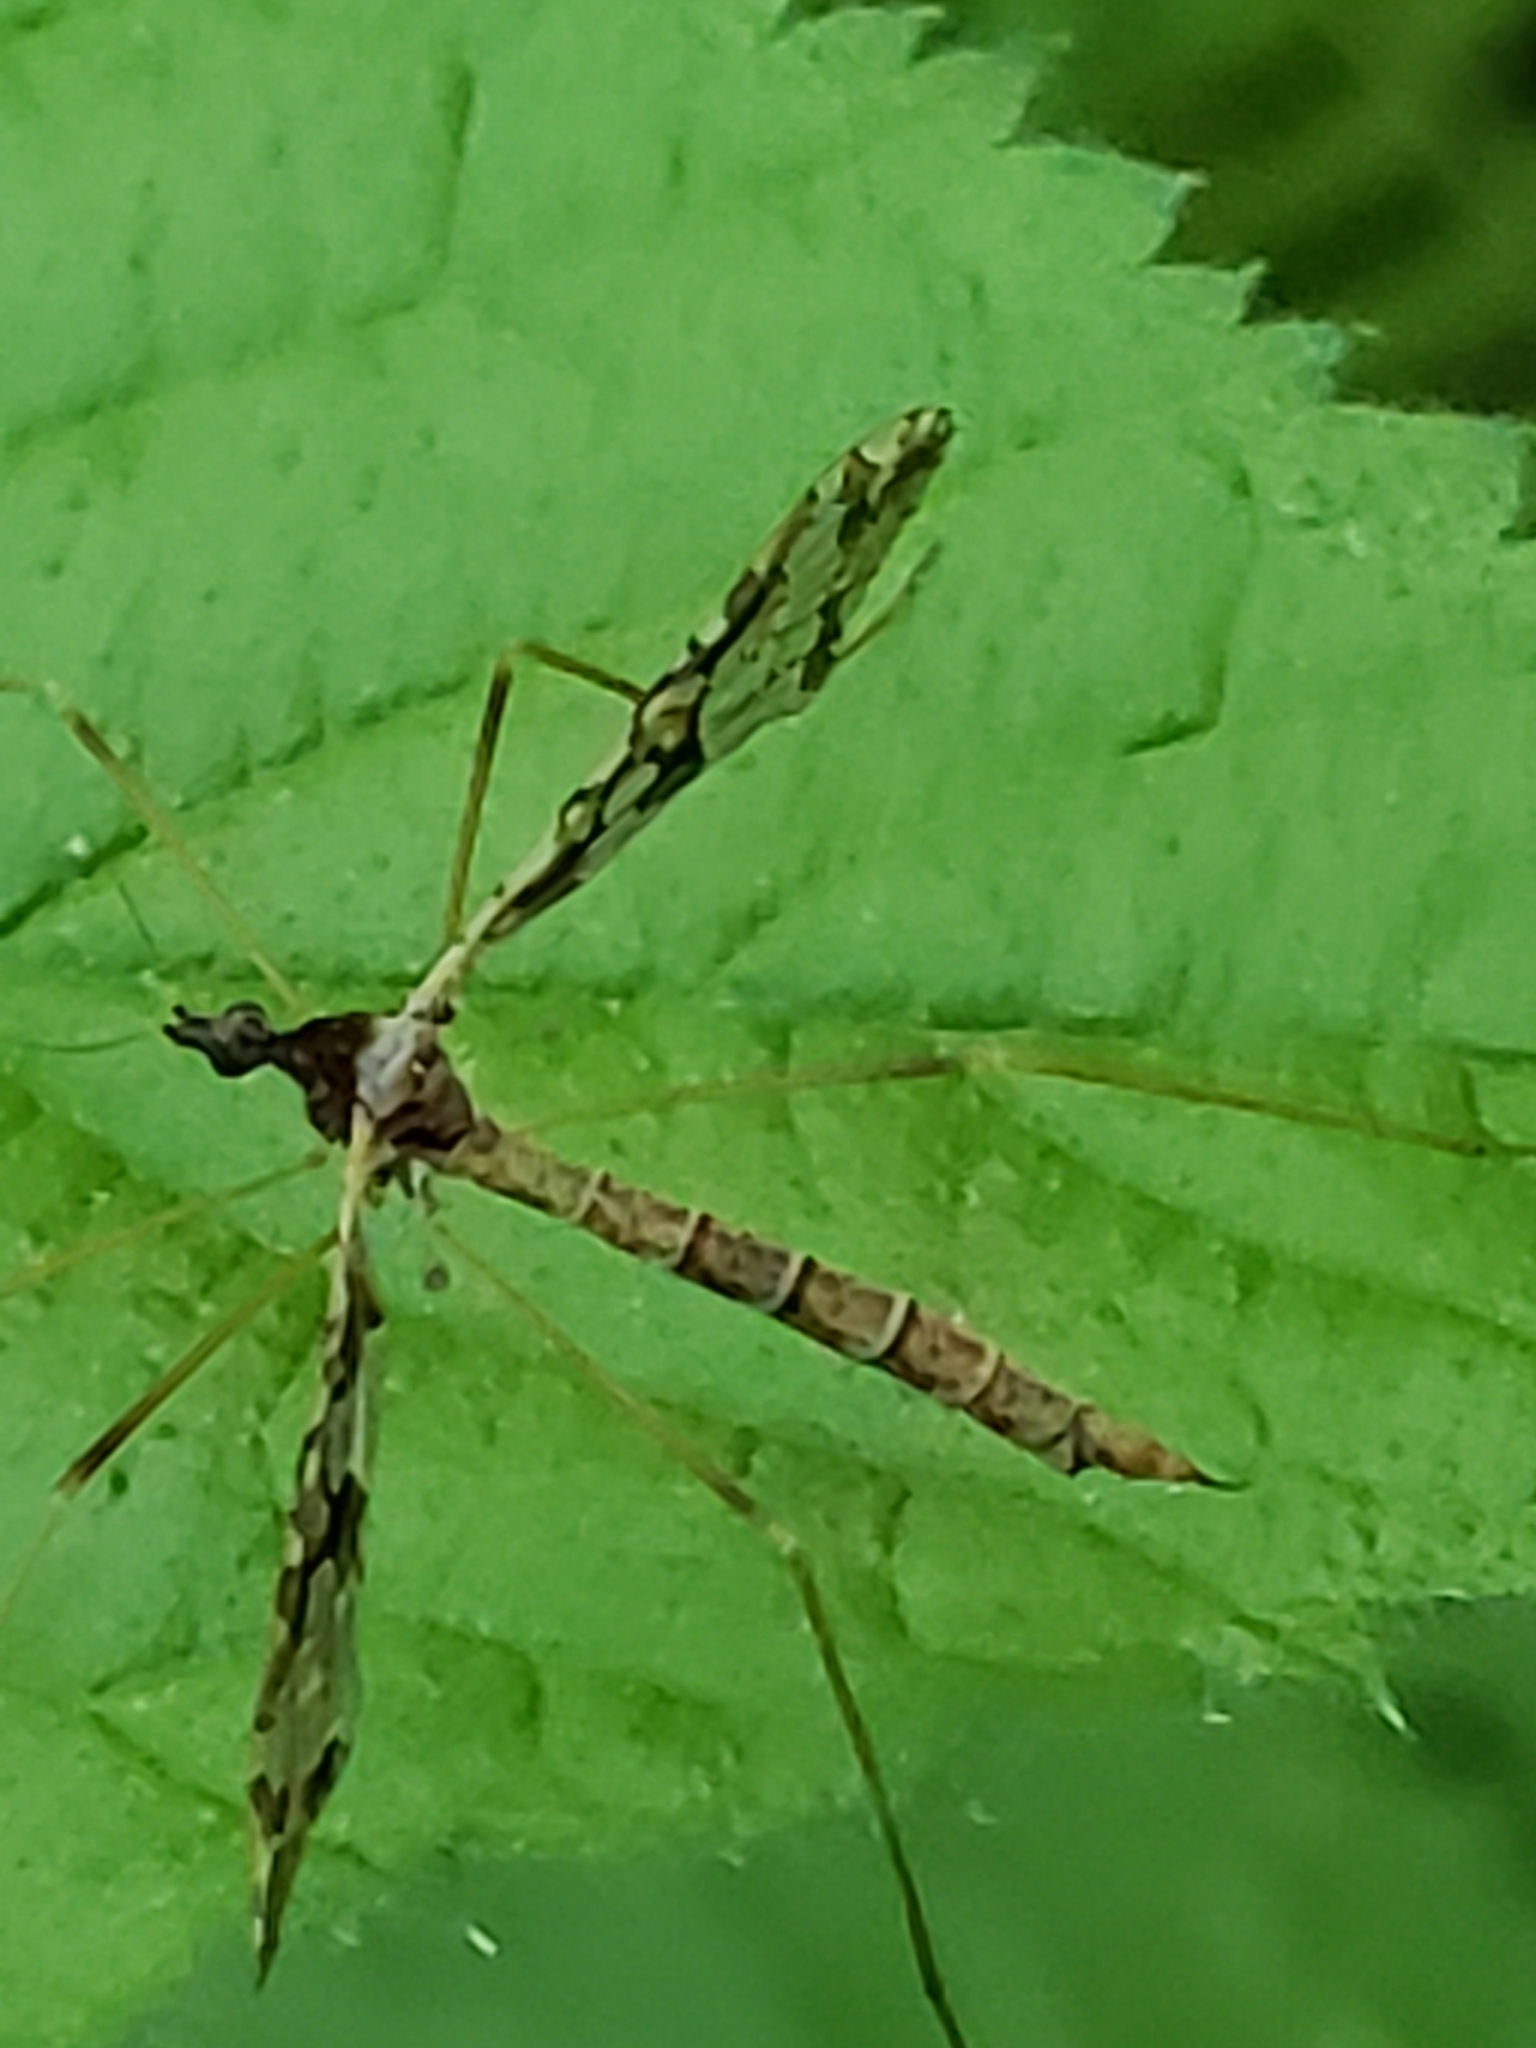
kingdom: Animalia
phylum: Arthropoda
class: Insecta
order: Diptera
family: Limoniidae
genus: Epiphragma
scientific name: Epiphragma solatrix
